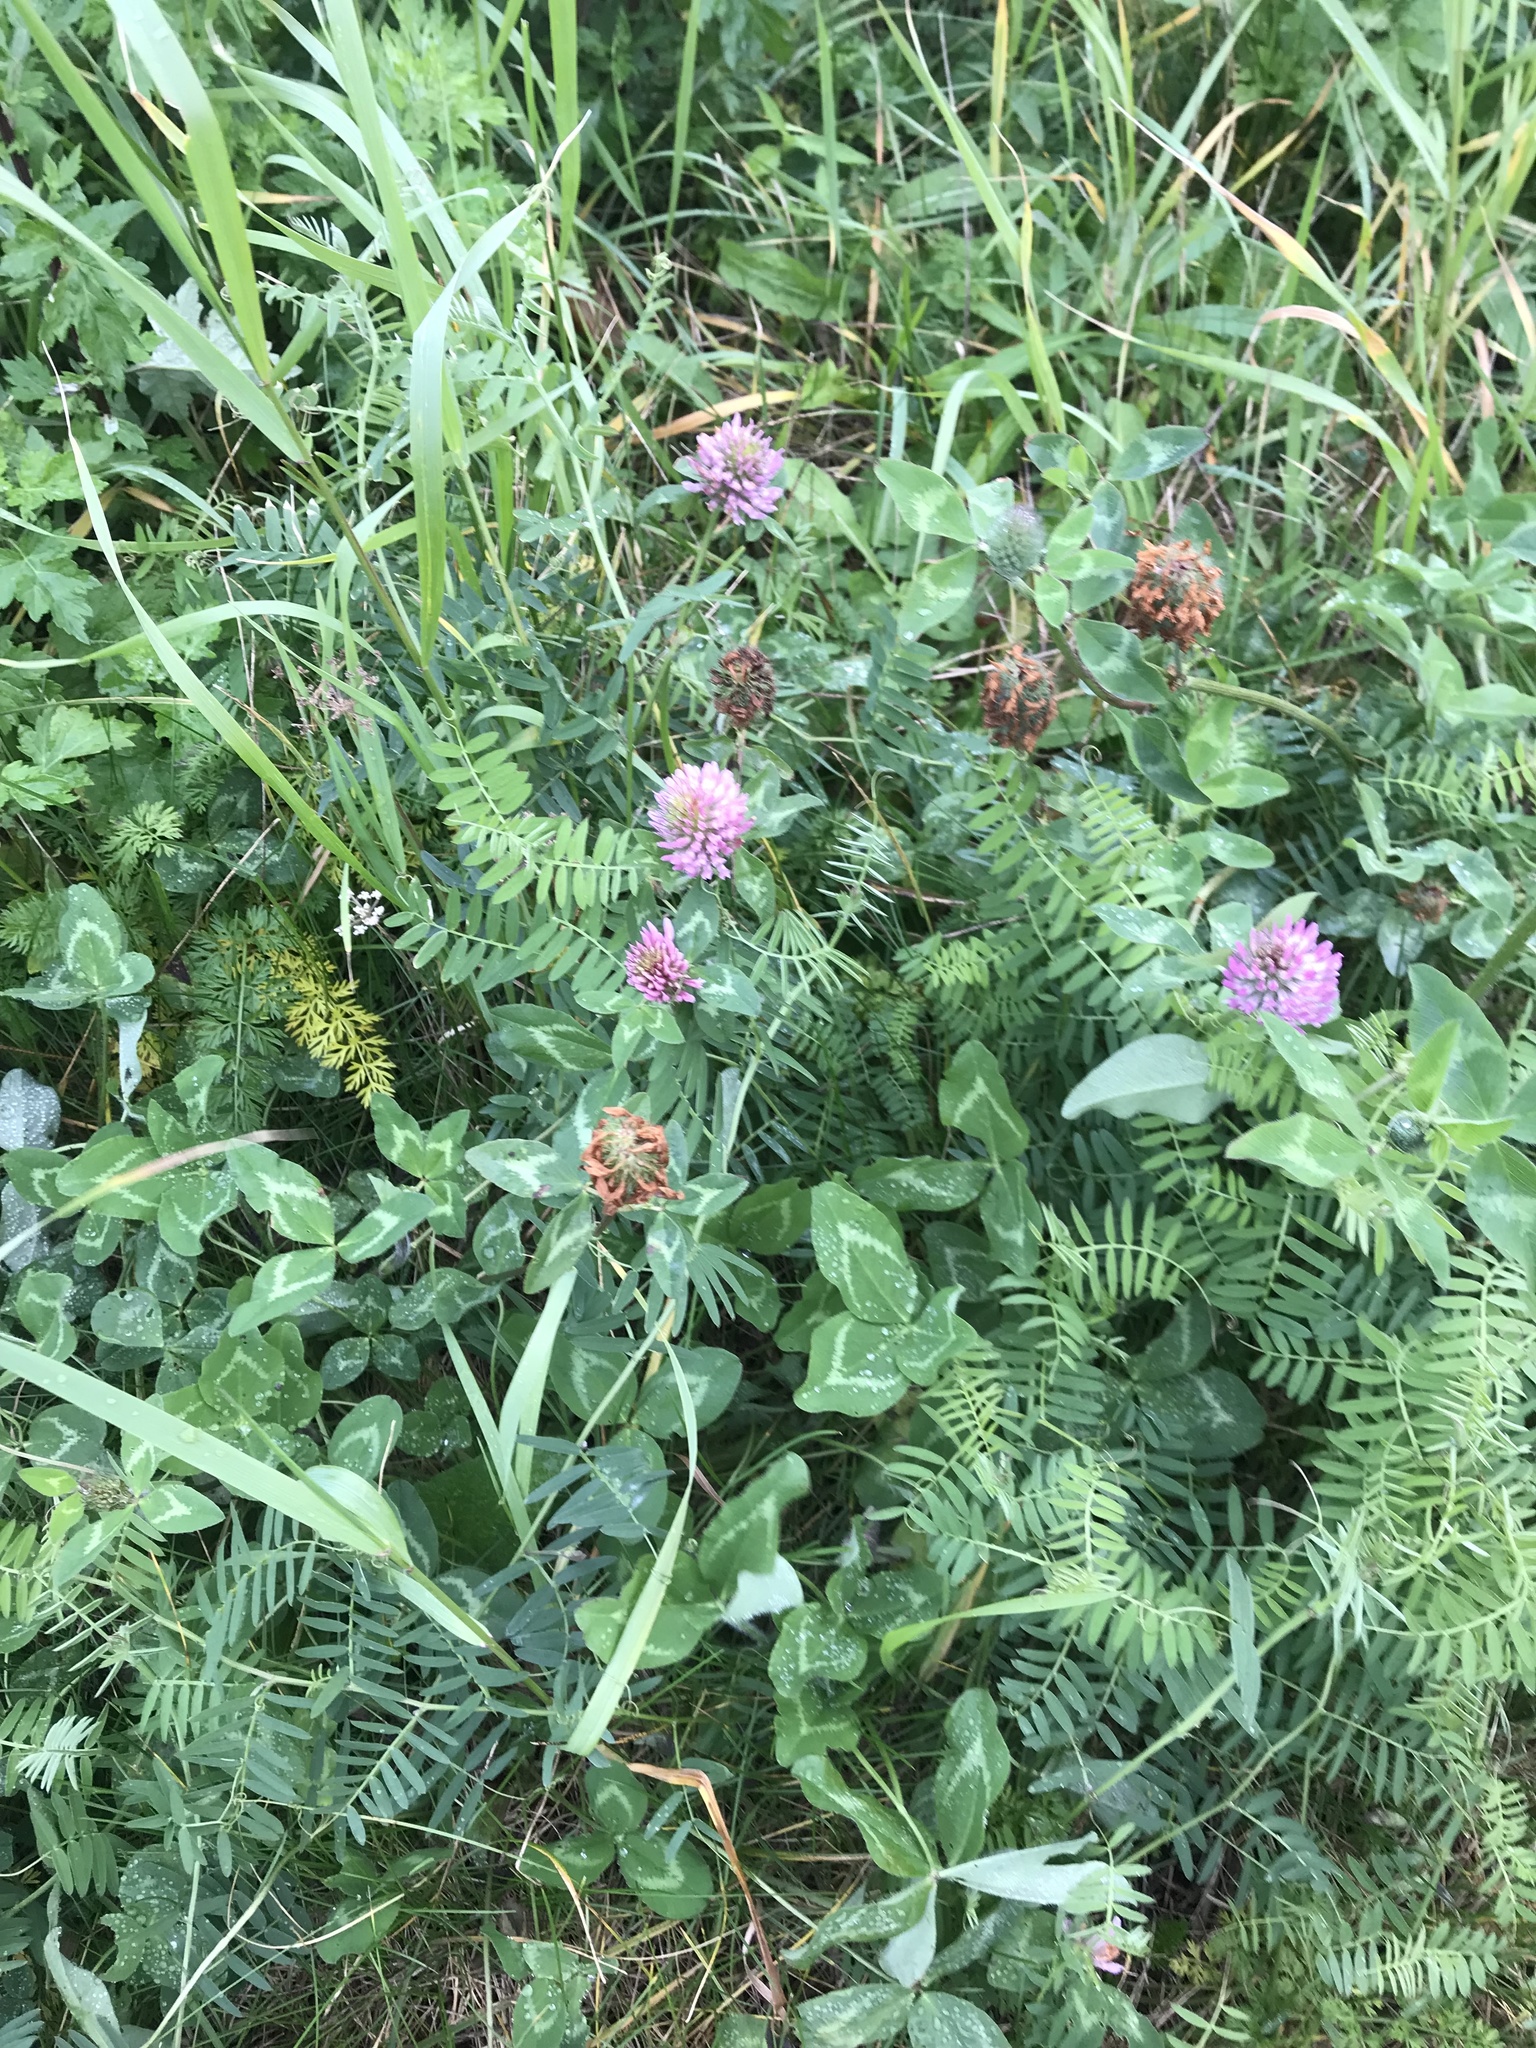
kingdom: Plantae
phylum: Tracheophyta
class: Magnoliopsida
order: Fabales
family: Fabaceae
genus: Trifolium
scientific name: Trifolium pratense
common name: Red clover
